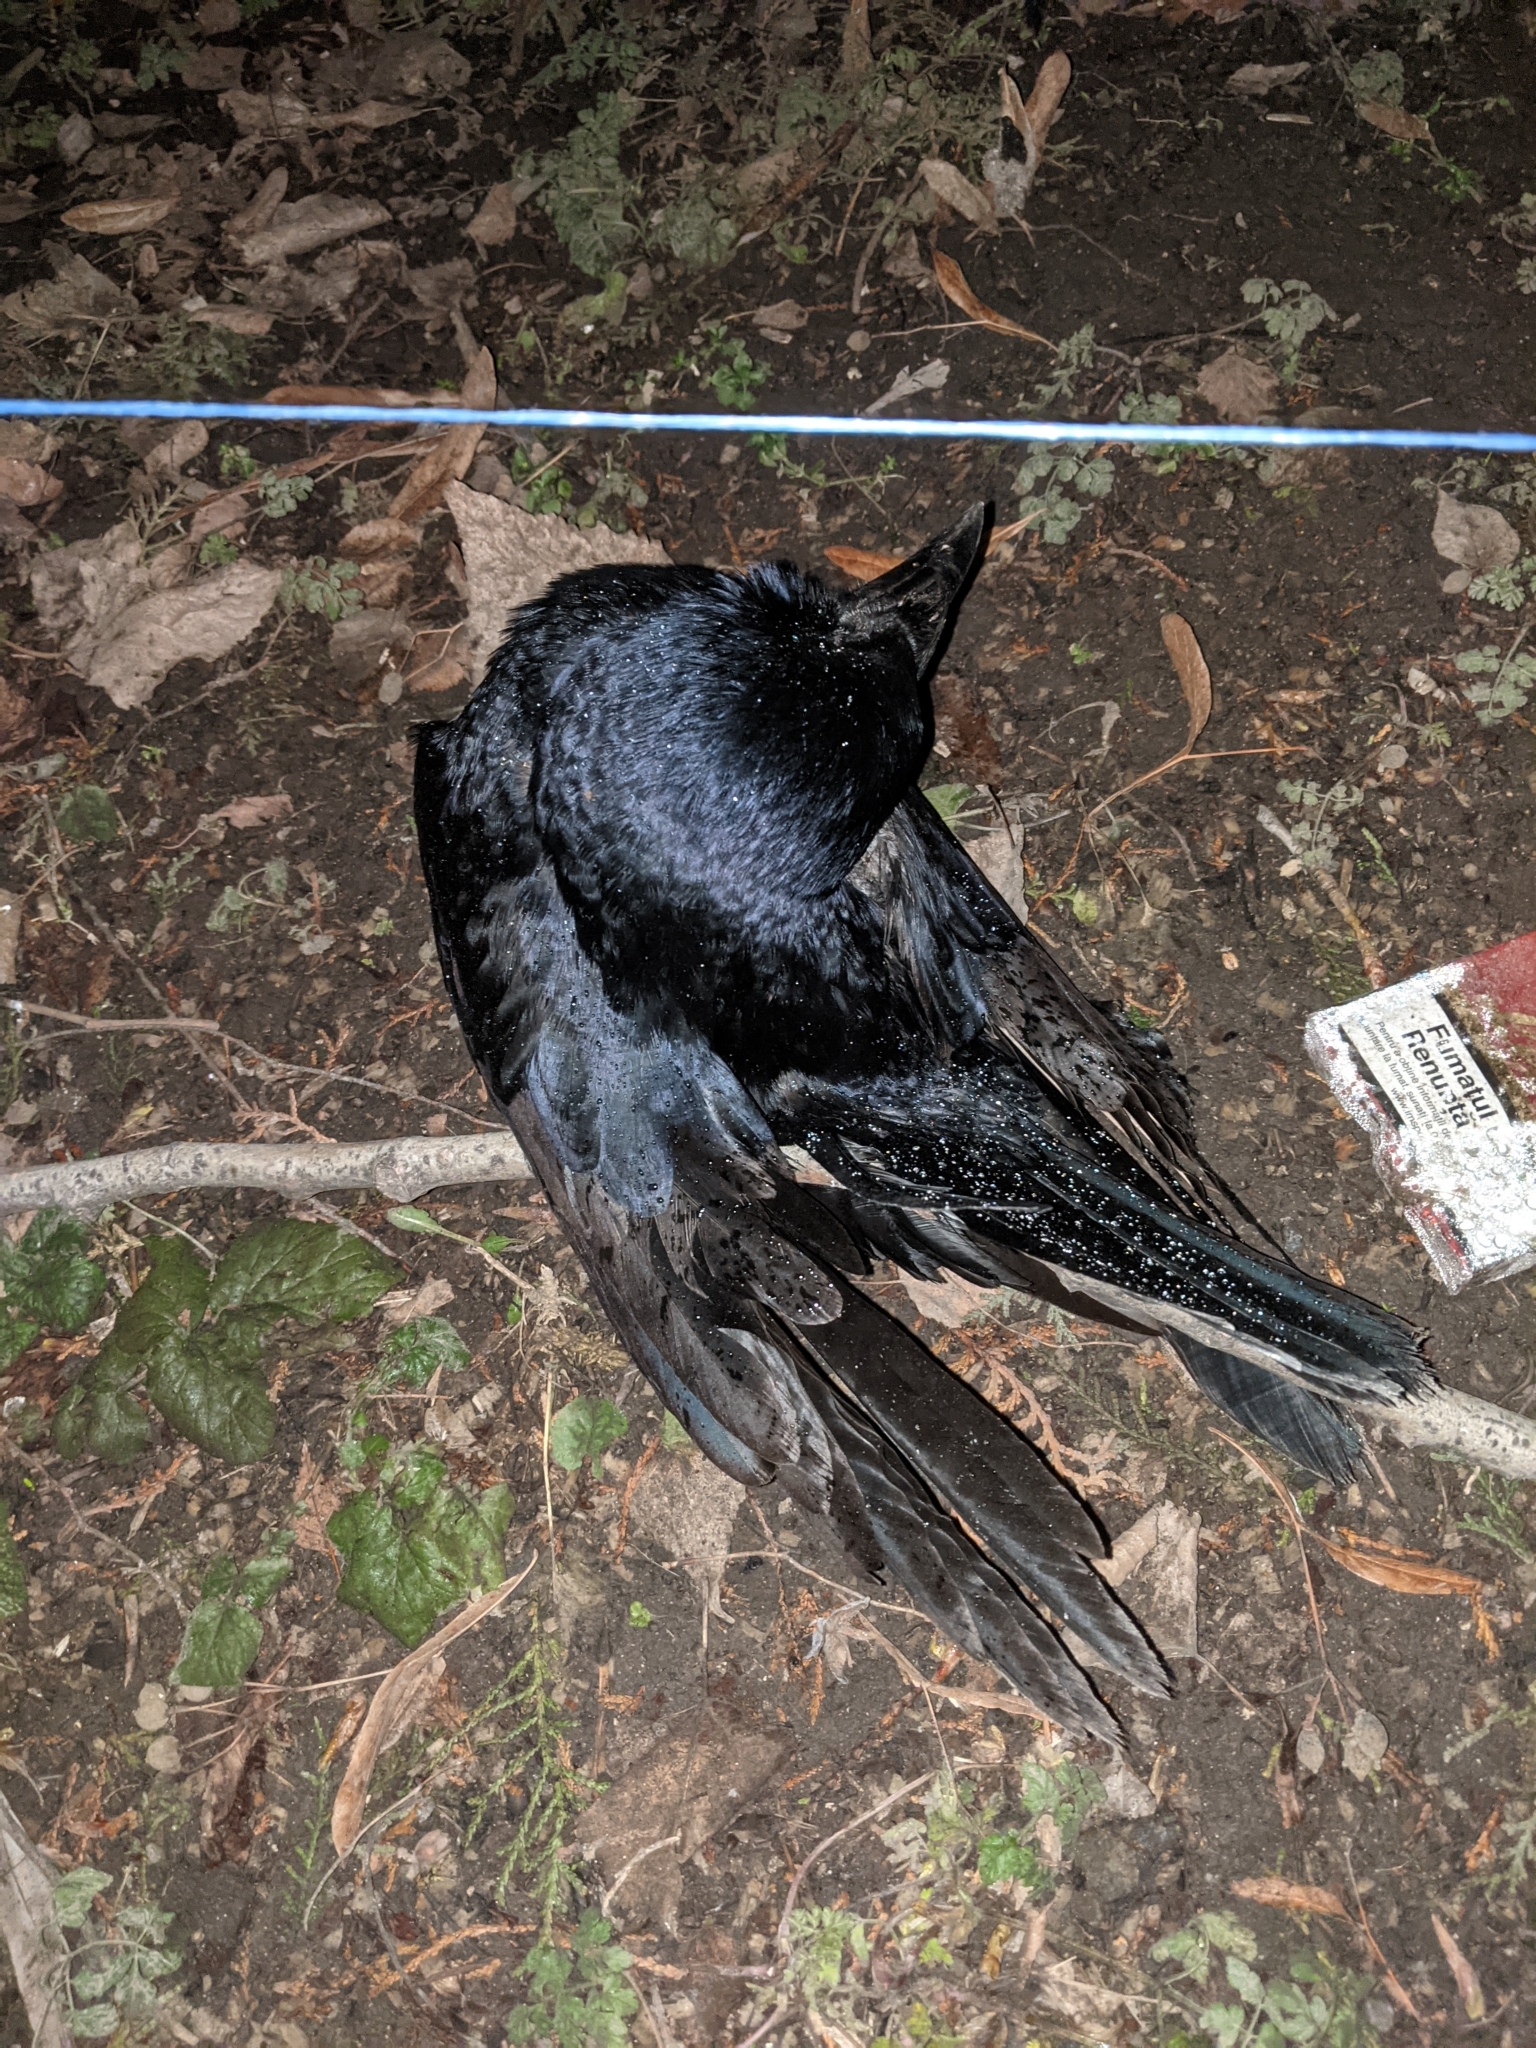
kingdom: Animalia
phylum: Chordata
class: Aves
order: Passeriformes
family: Corvidae
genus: Corvus
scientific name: Corvus frugilegus
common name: Rook
